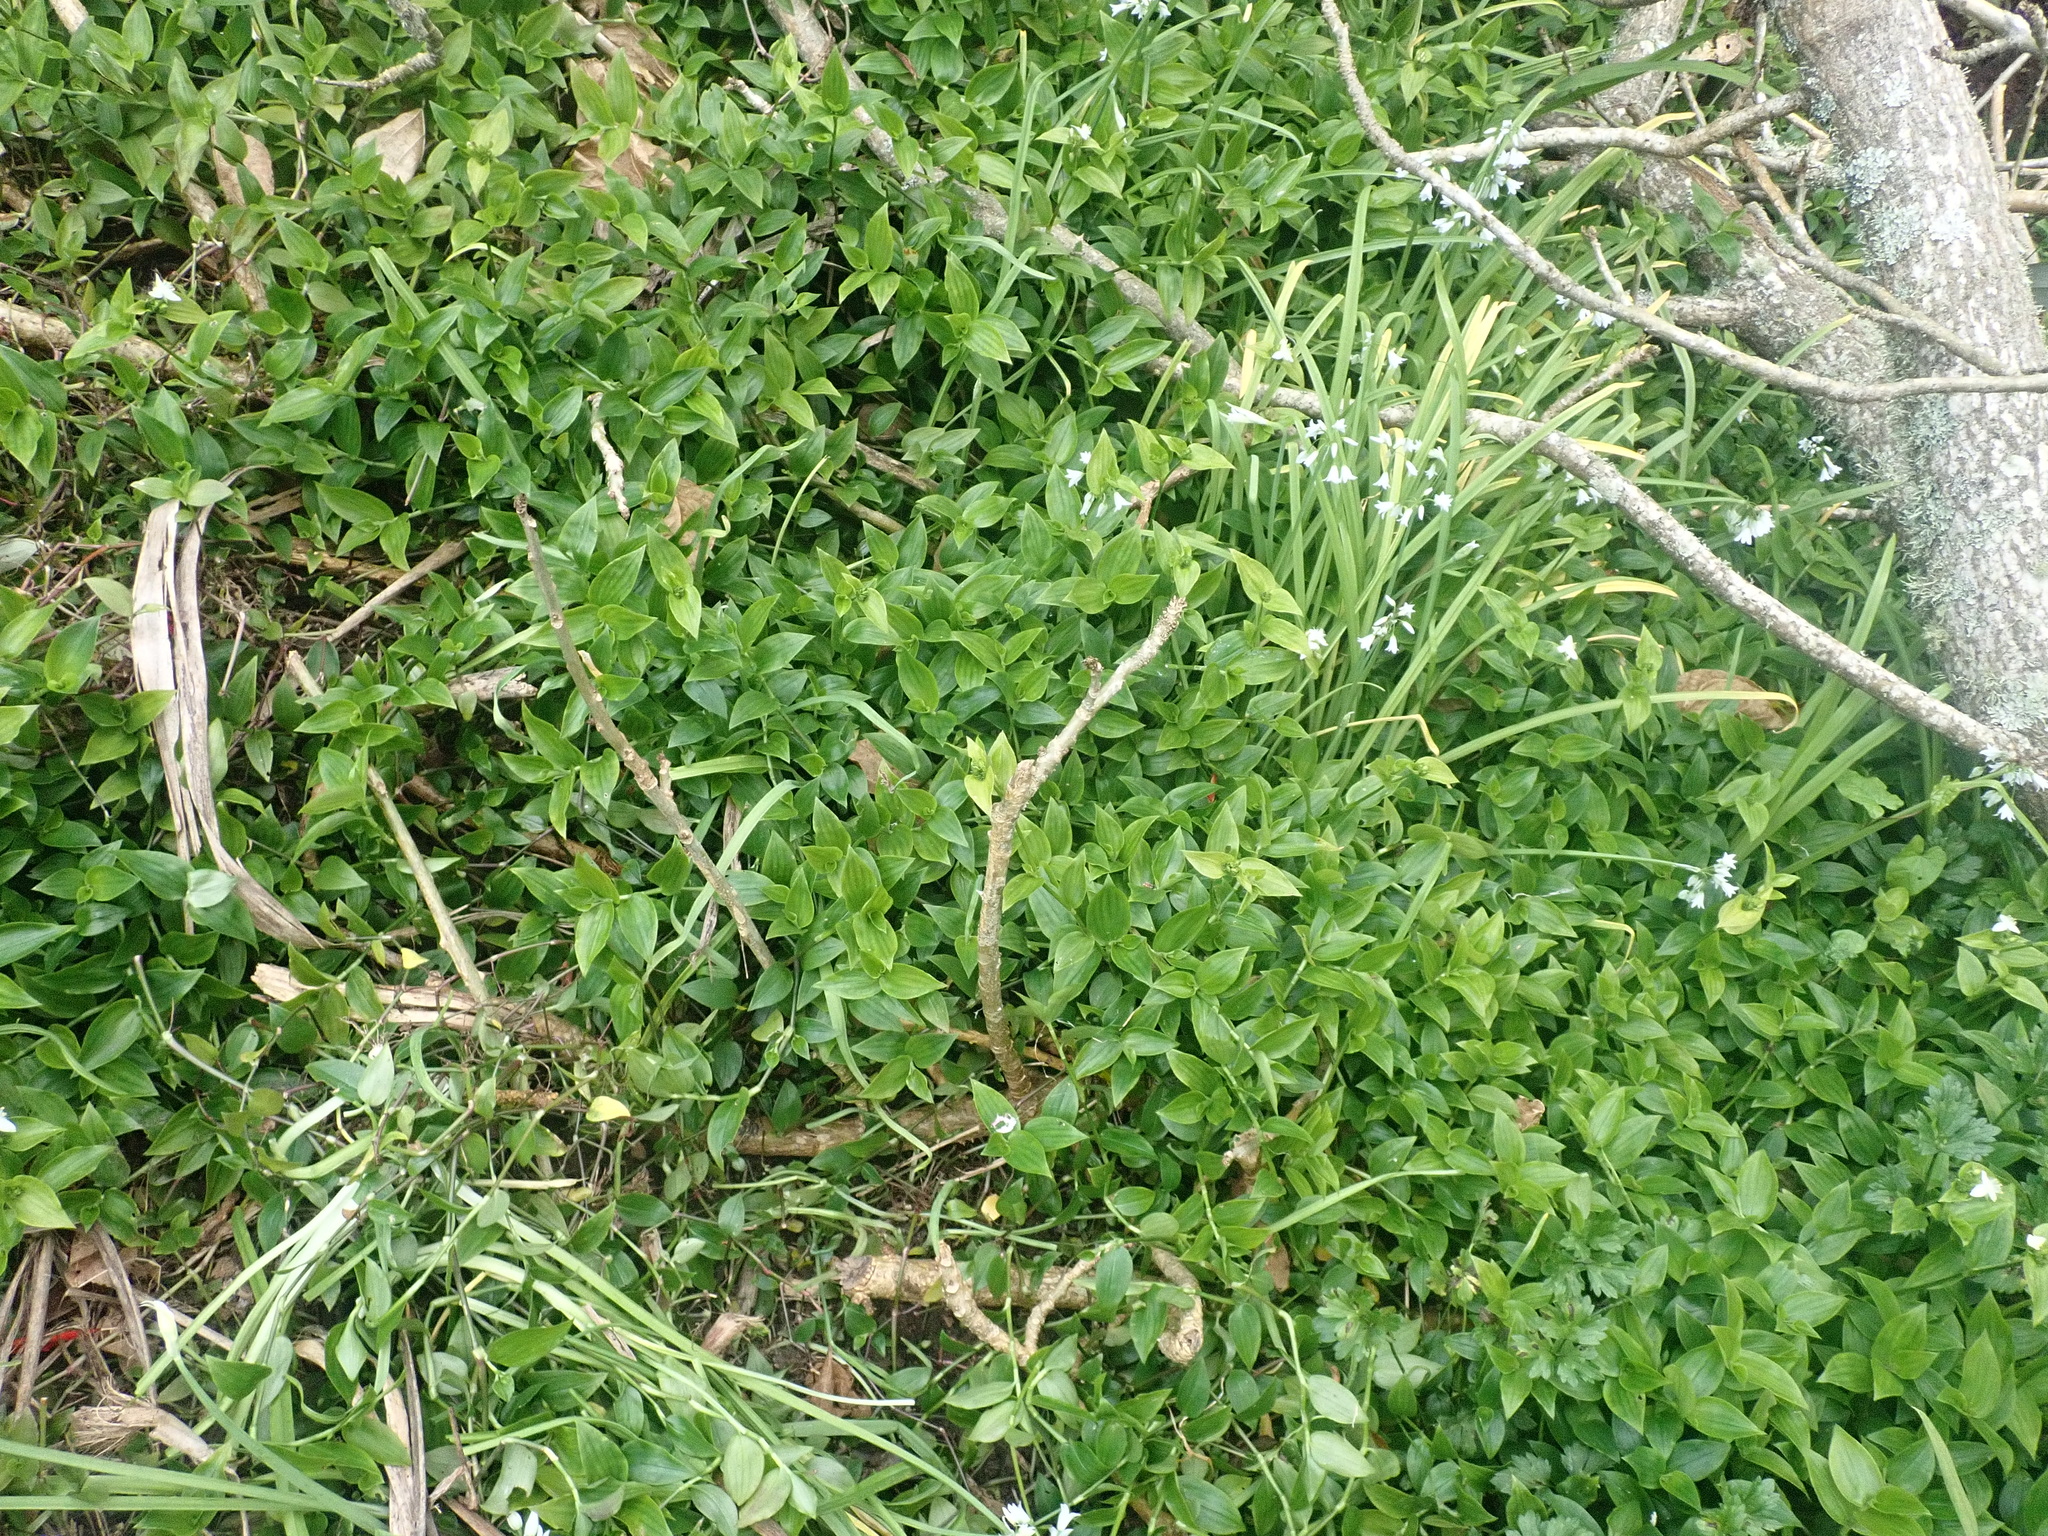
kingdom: Plantae
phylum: Tracheophyta
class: Liliopsida
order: Asparagales
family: Amaryllidaceae
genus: Allium
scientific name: Allium triquetrum
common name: Three-cornered garlic
